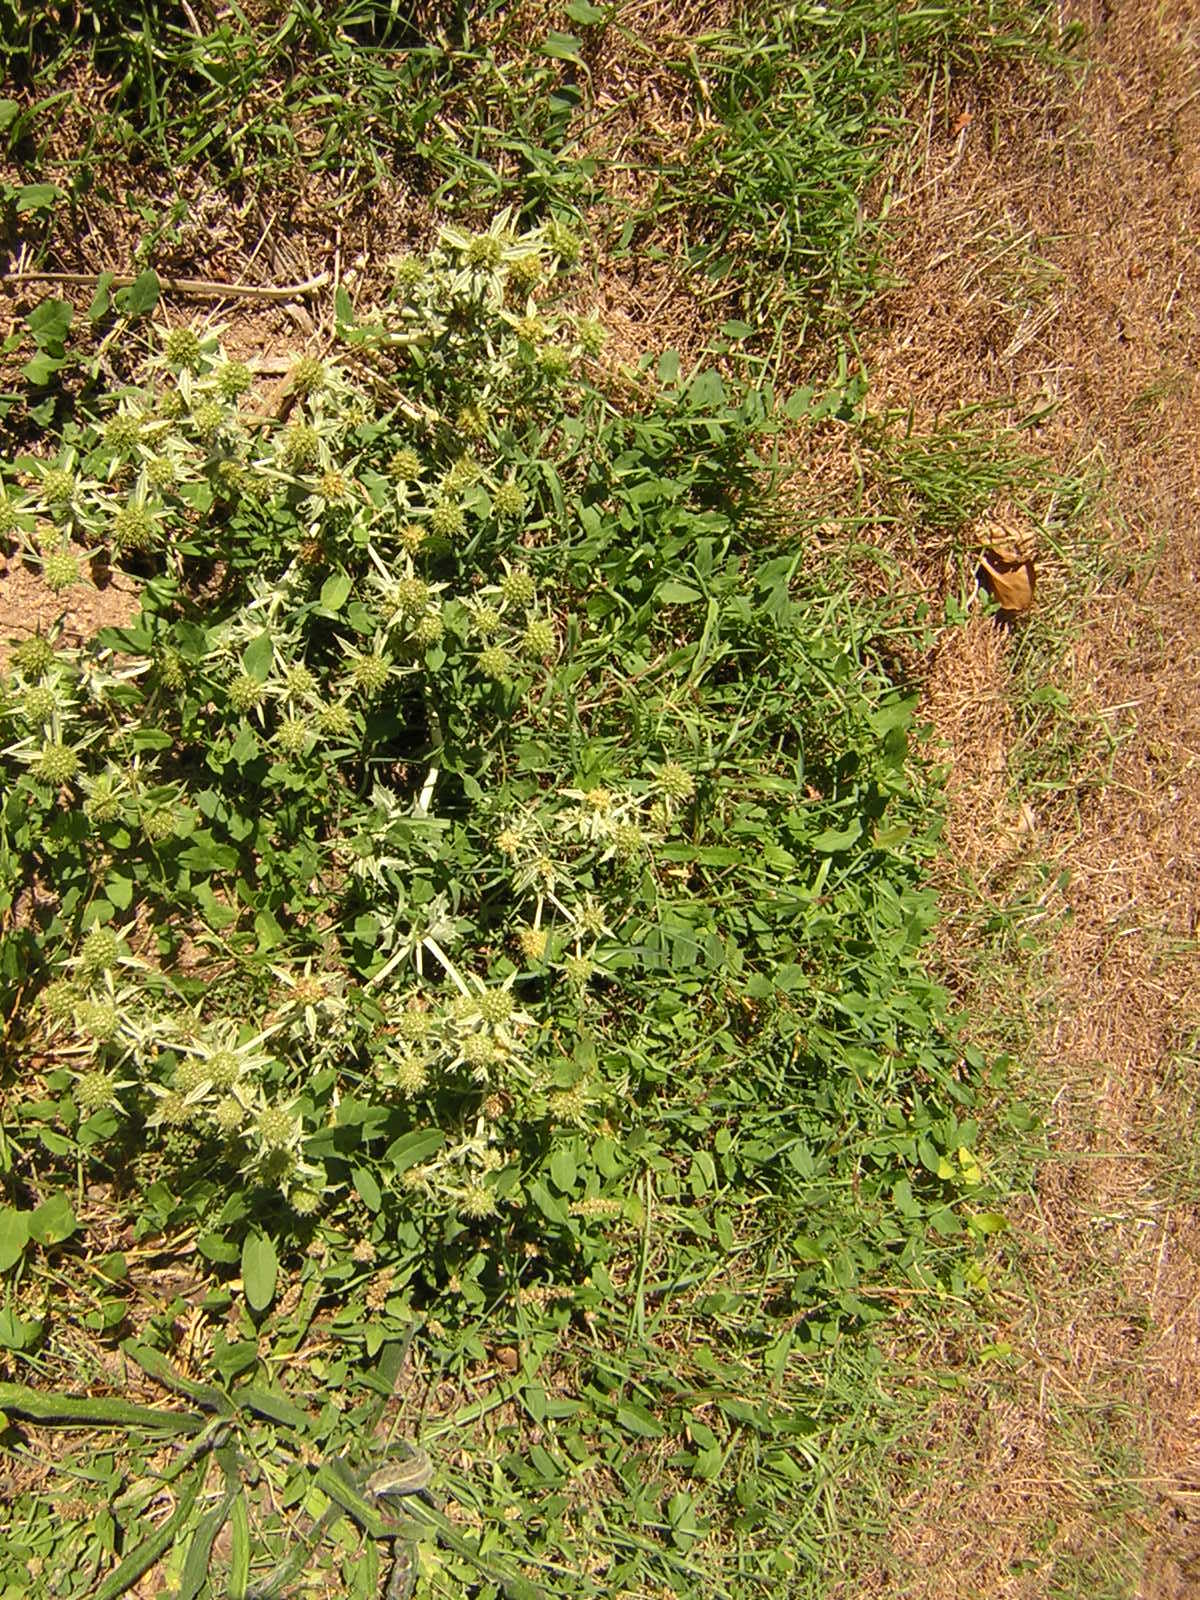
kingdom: Plantae
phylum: Tracheophyta
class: Magnoliopsida
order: Apiales
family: Apiaceae
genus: Eryngium
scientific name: Eryngium campestre
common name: Field eryngo
